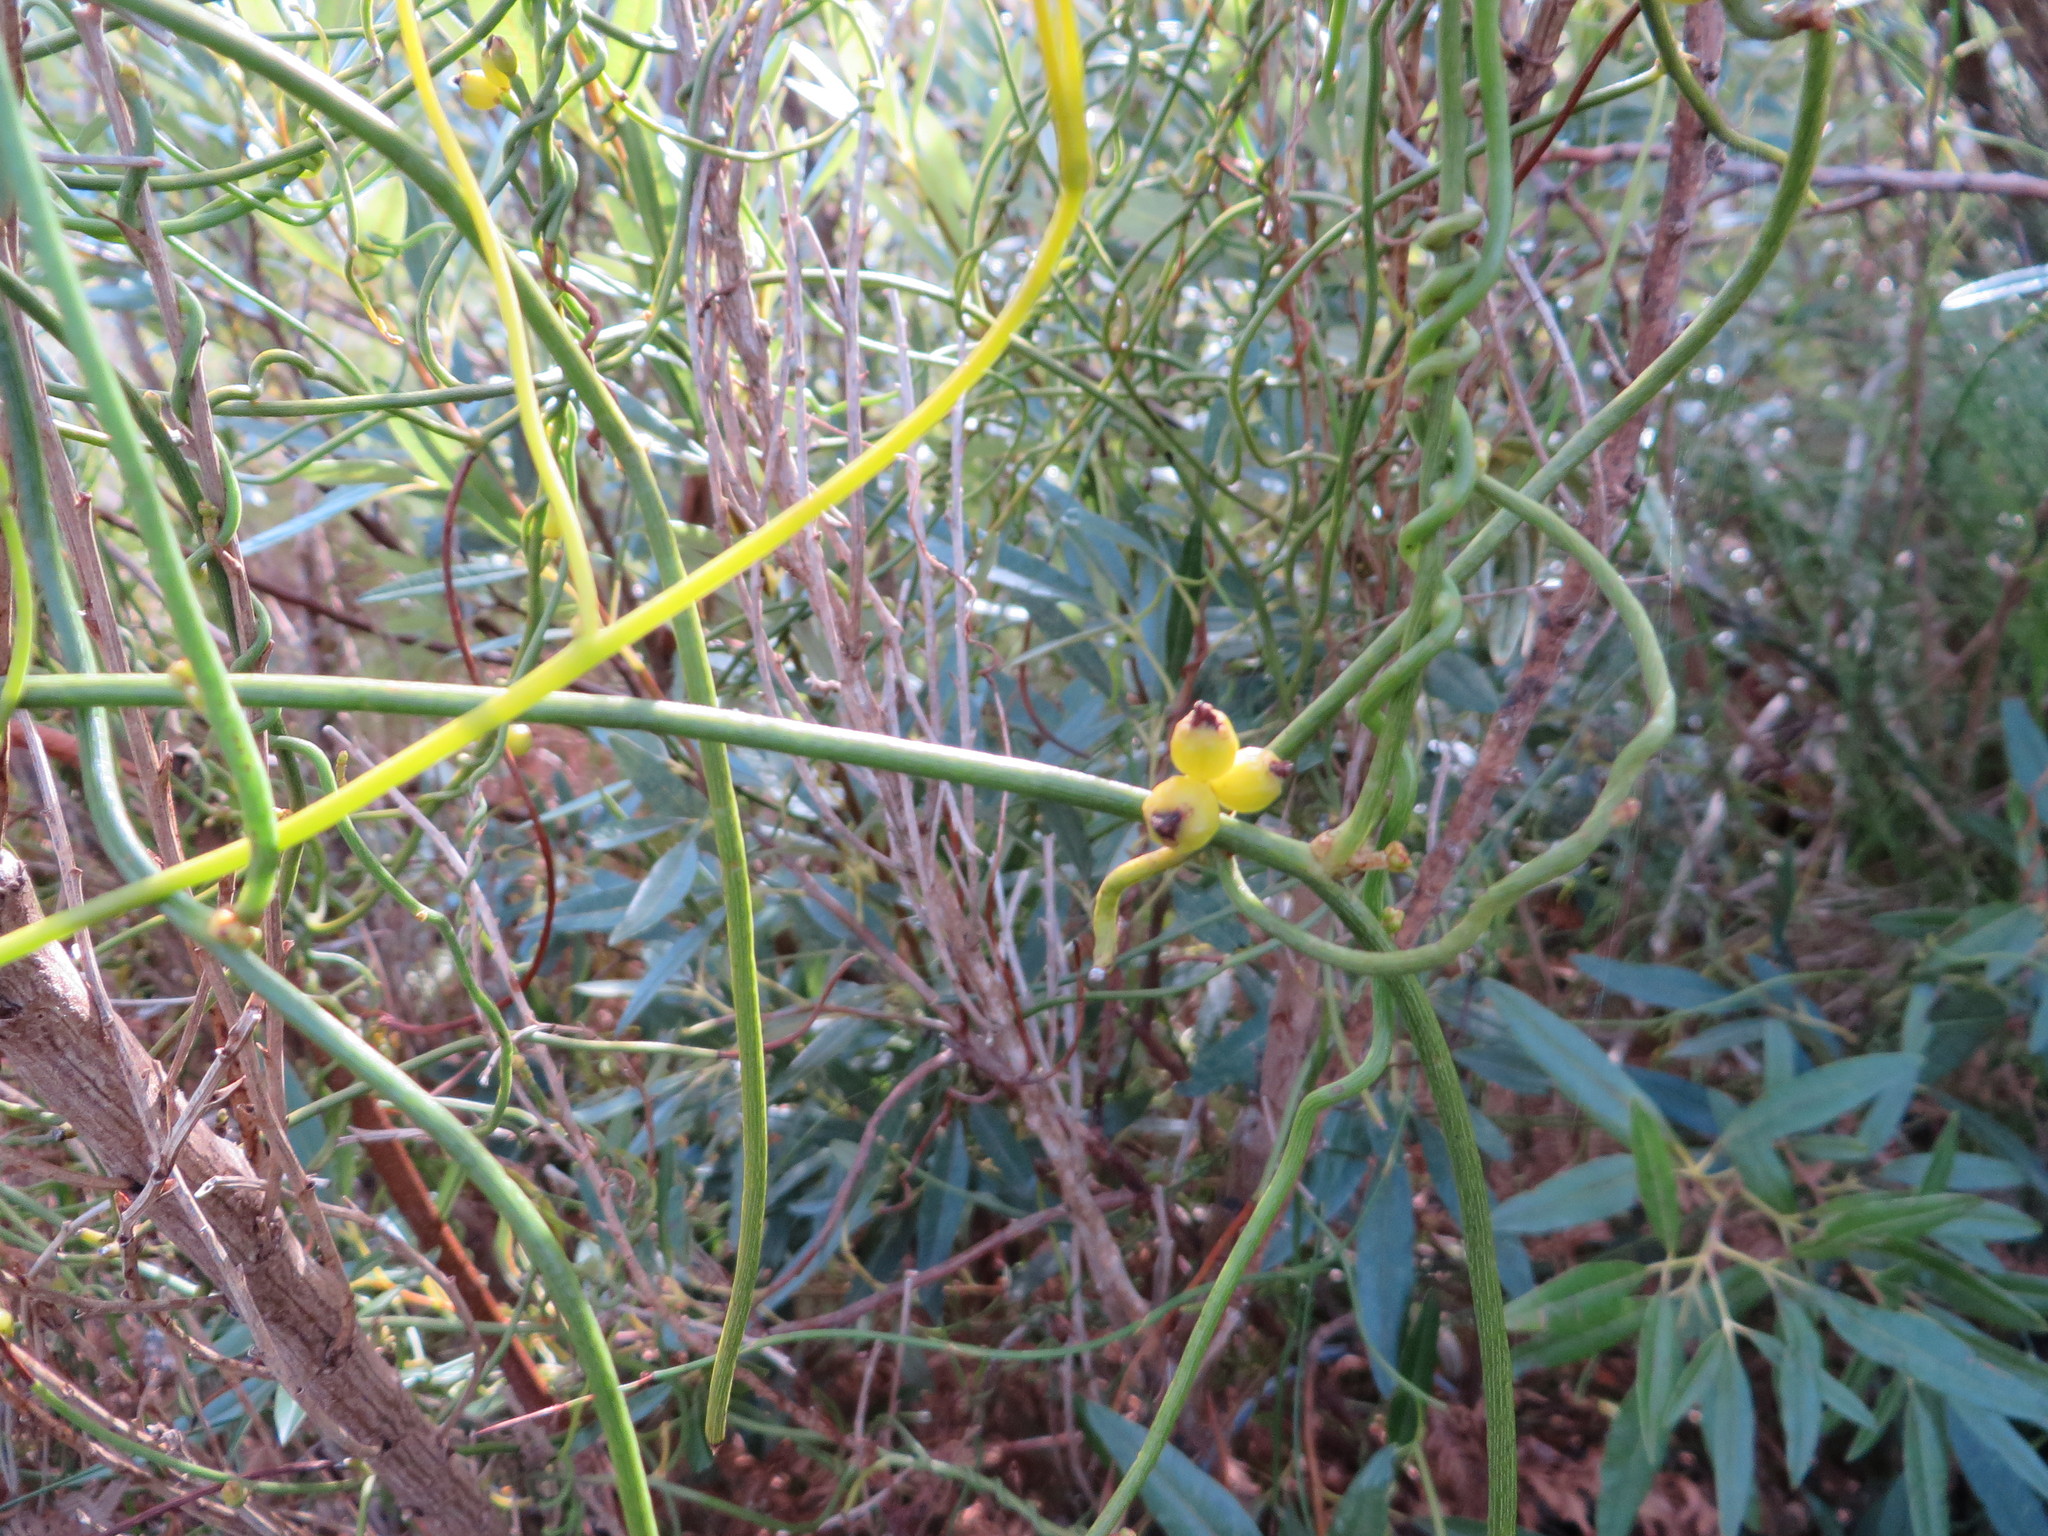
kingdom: Plantae
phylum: Tracheophyta
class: Magnoliopsida
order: Laurales
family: Lauraceae
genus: Cassytha
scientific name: Cassytha ciliolata
